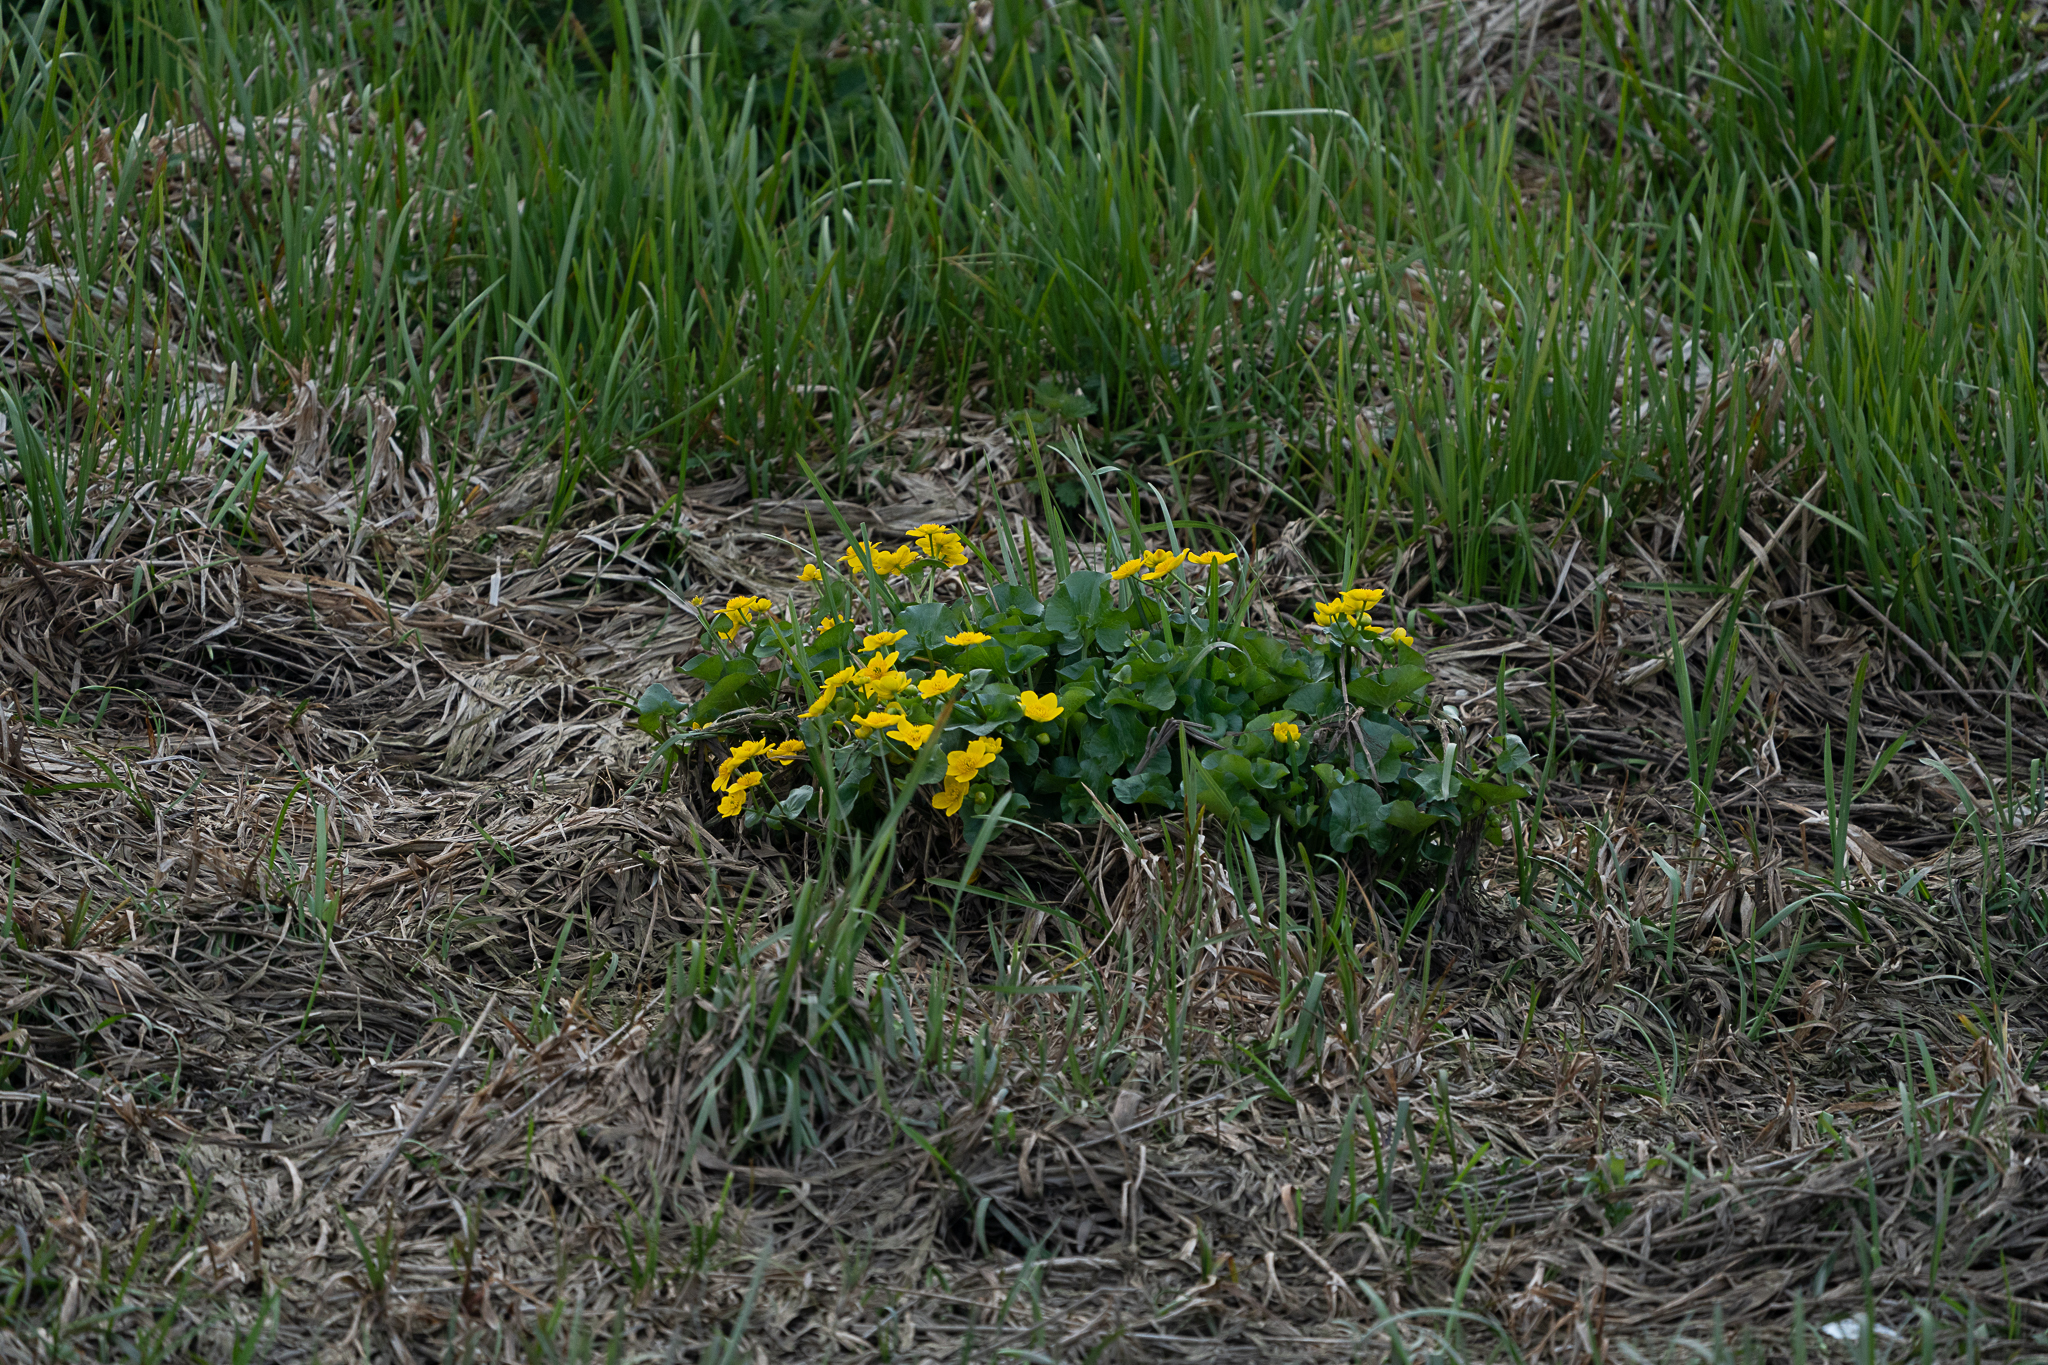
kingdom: Plantae
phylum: Tracheophyta
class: Magnoliopsida
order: Ranunculales
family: Ranunculaceae
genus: Caltha
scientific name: Caltha palustris
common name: Marsh marigold
